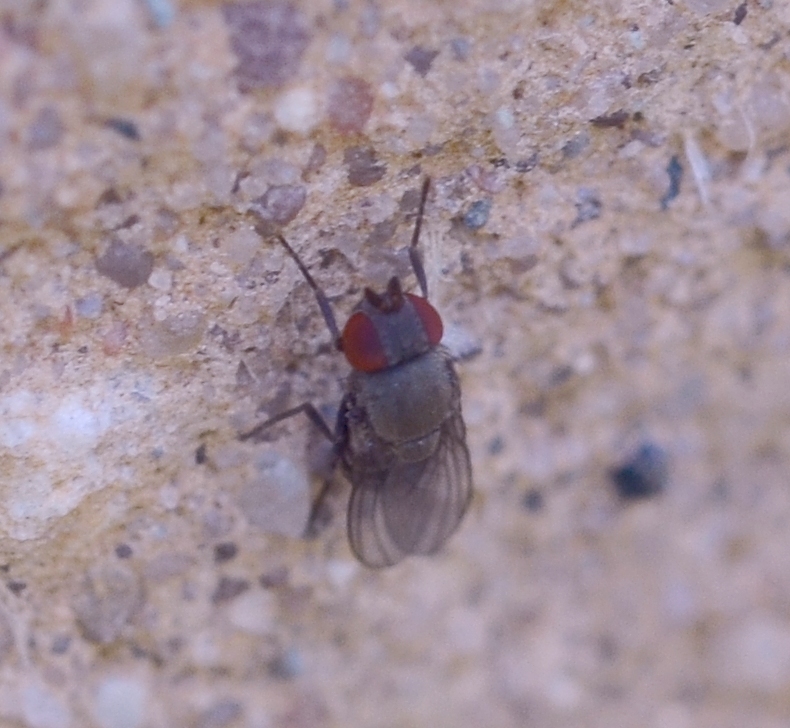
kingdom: Animalia
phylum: Arthropoda
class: Insecta
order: Diptera
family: Drosophilidae
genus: Cacoxenus
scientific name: Cacoxenus indagator
